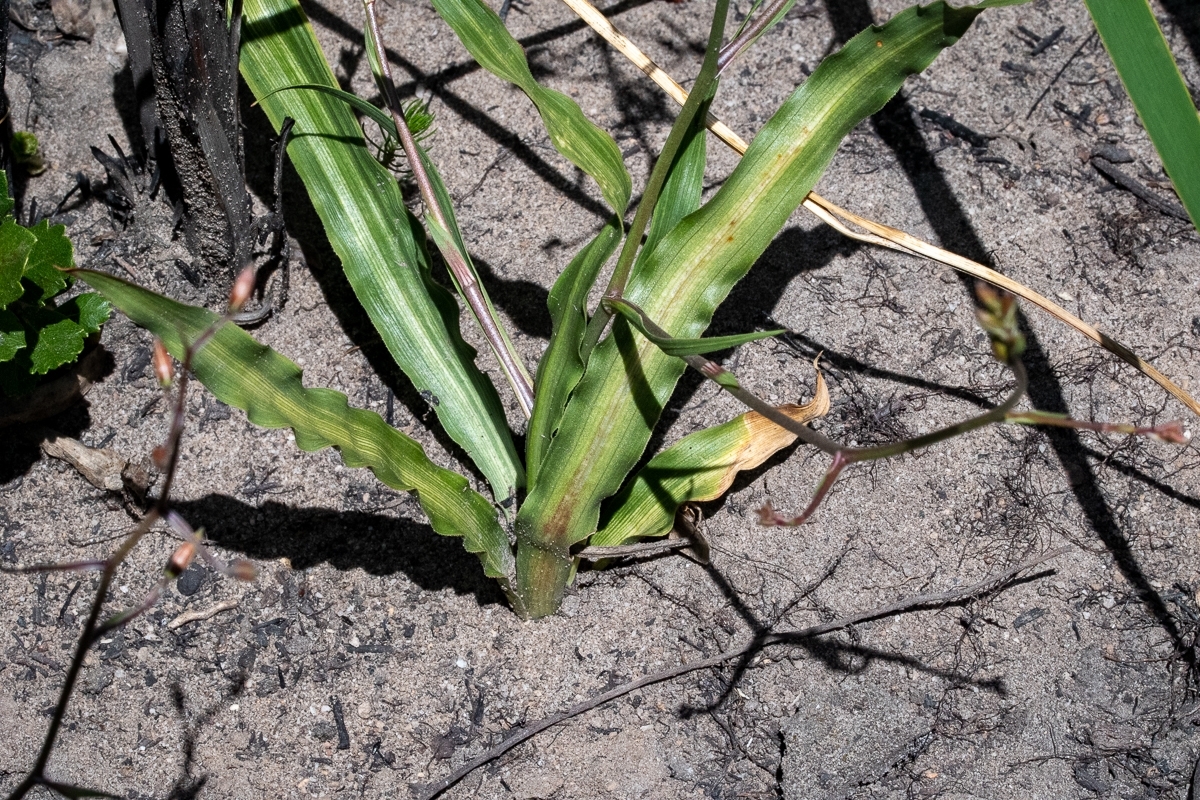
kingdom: Plantae
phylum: Tracheophyta
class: Liliopsida
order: Asparagales
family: Tecophilaeaceae
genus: Cyanella
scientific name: Cyanella hyacinthoides
